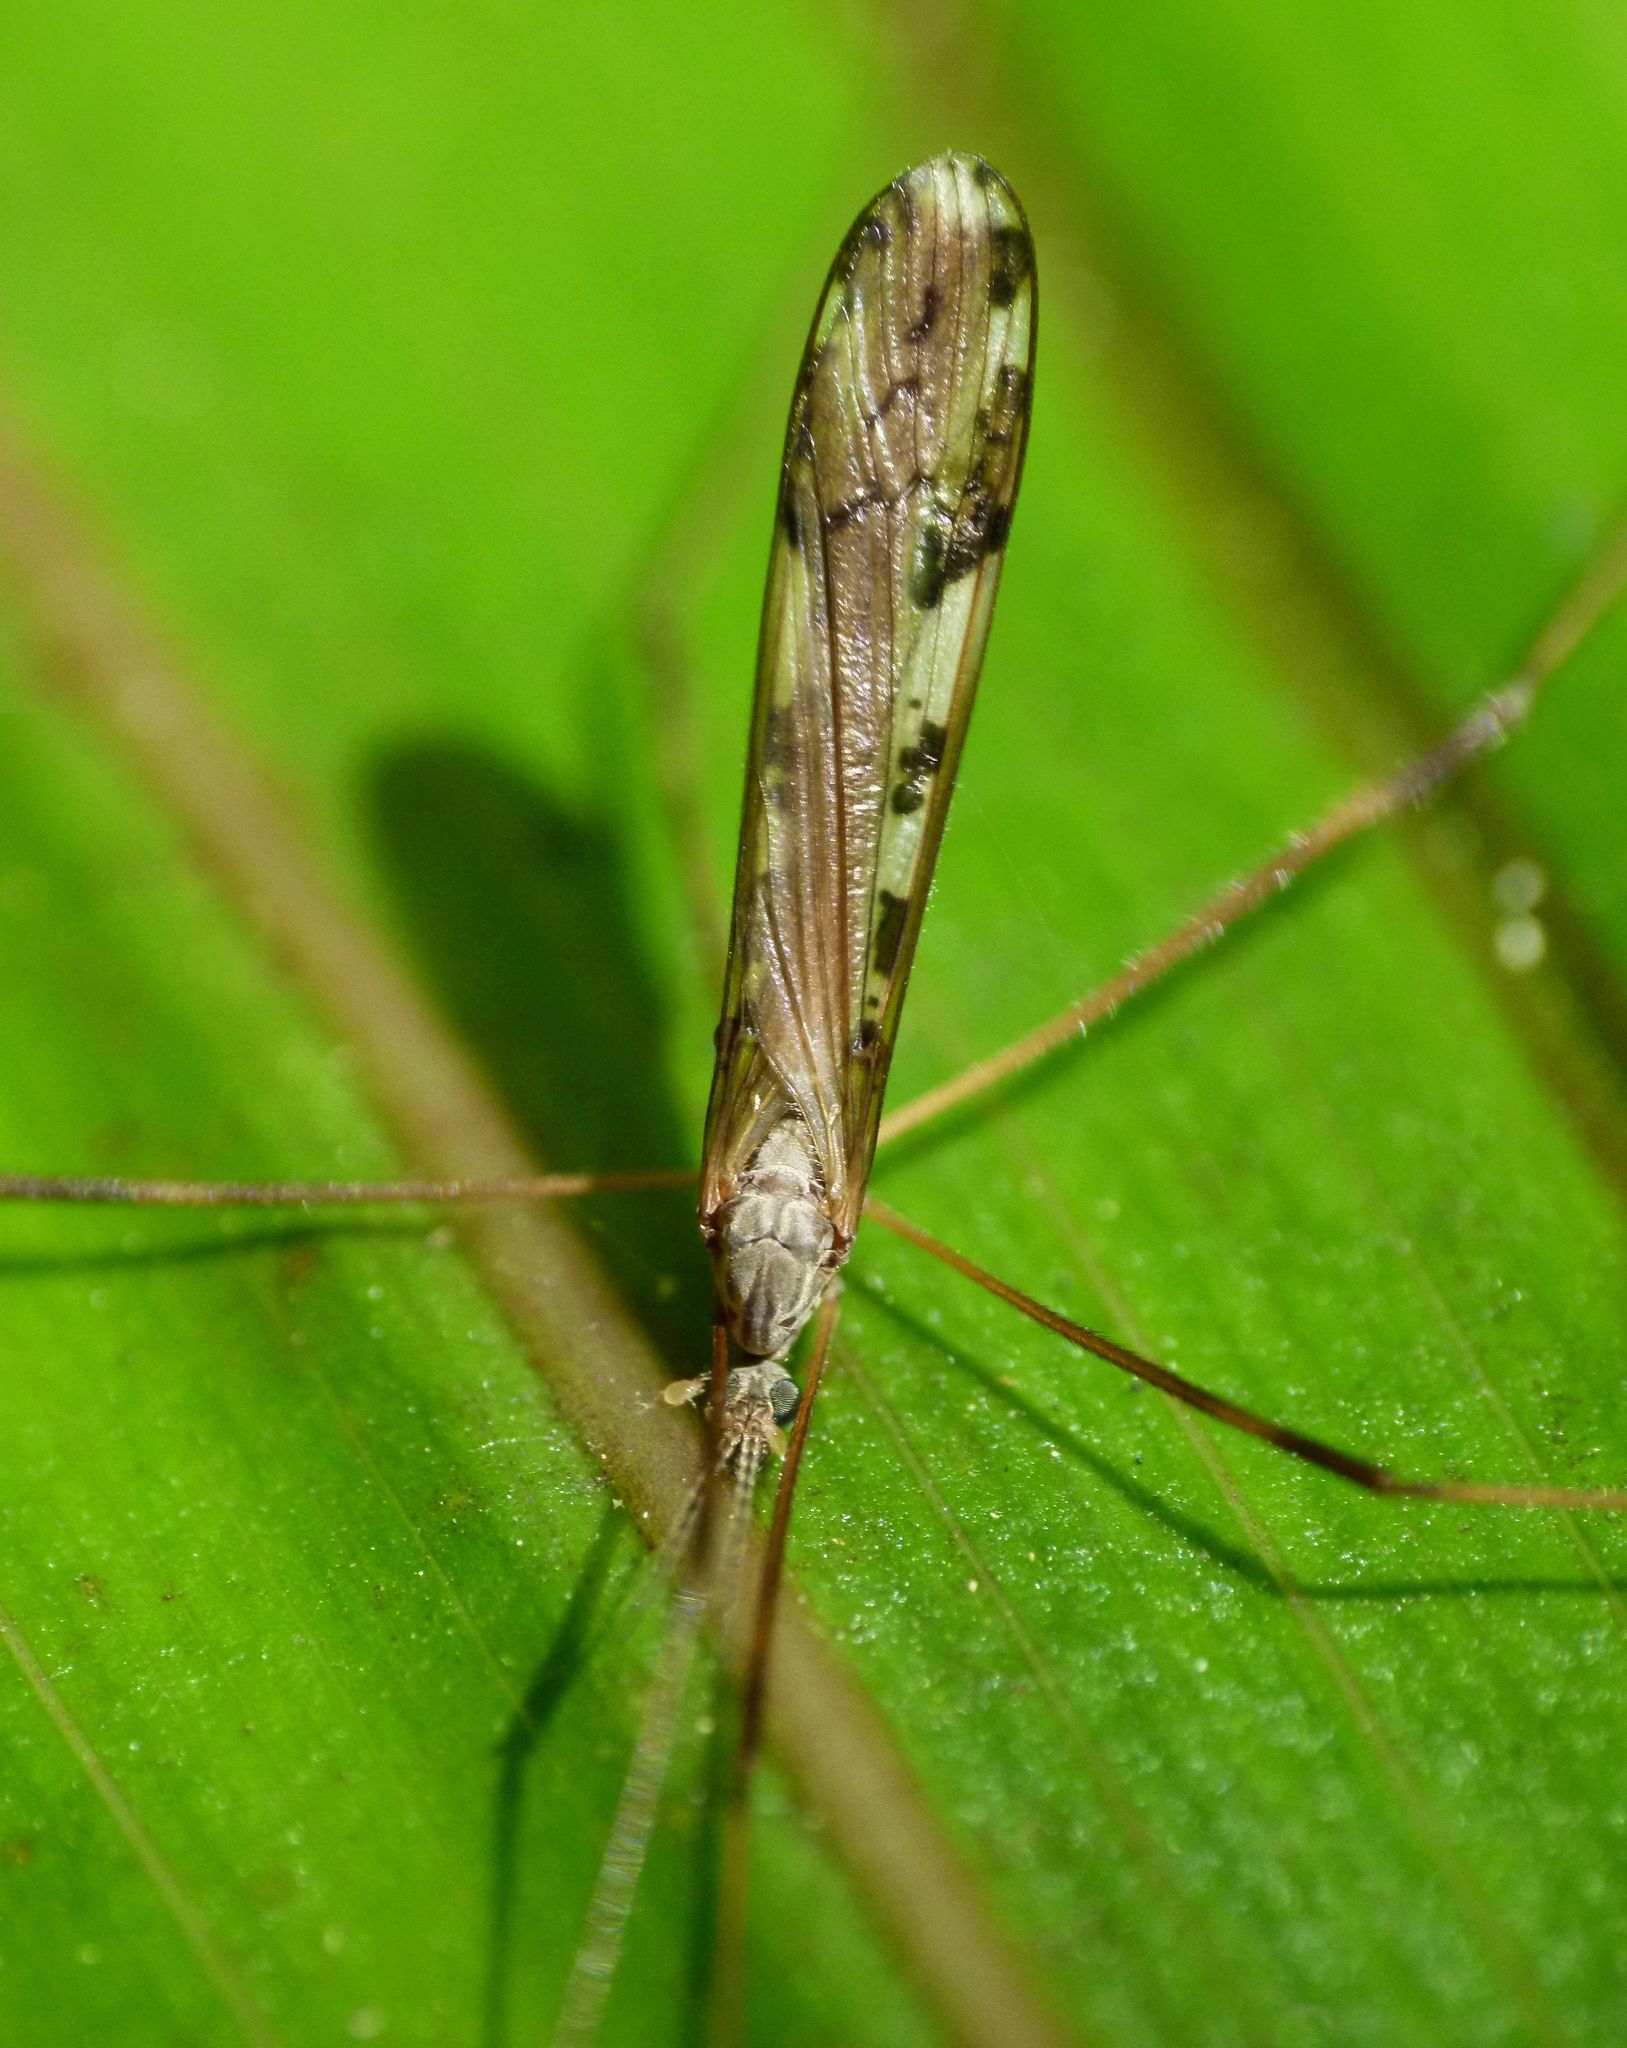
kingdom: Animalia
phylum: Arthropoda
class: Insecta
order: Diptera
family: Limoniidae
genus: Paralimnophila
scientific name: Paralimnophila skusei
